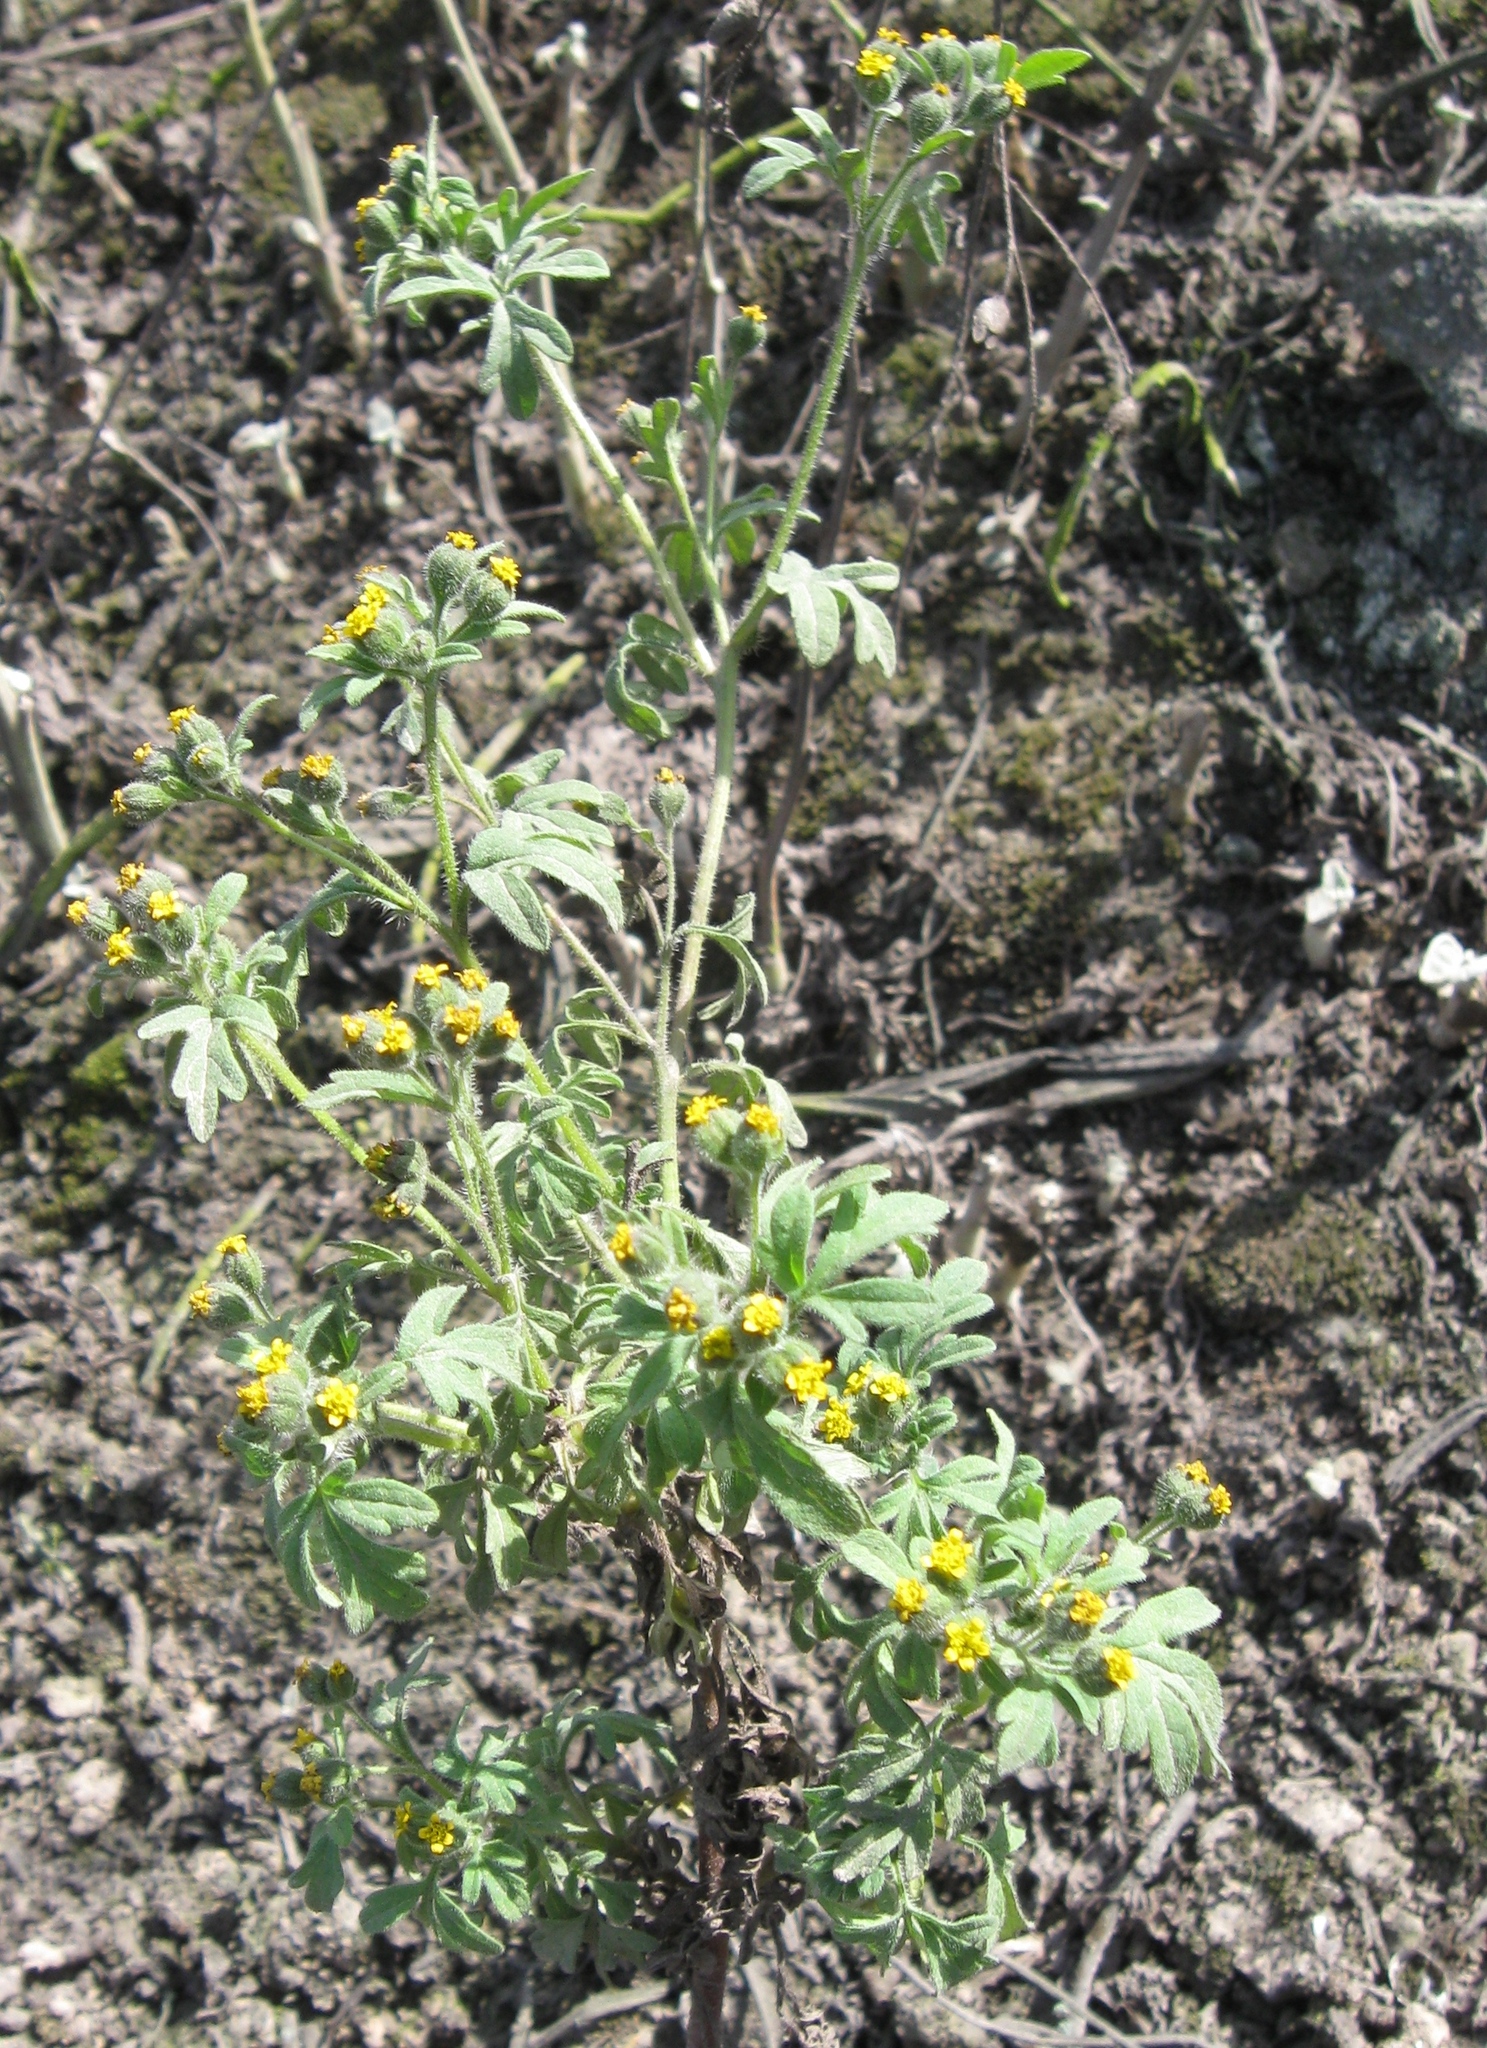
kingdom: Plantae
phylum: Tracheophyta
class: Magnoliopsida
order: Asterales
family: Asteraceae
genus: Villanova
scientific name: Villanova oppositifolia
